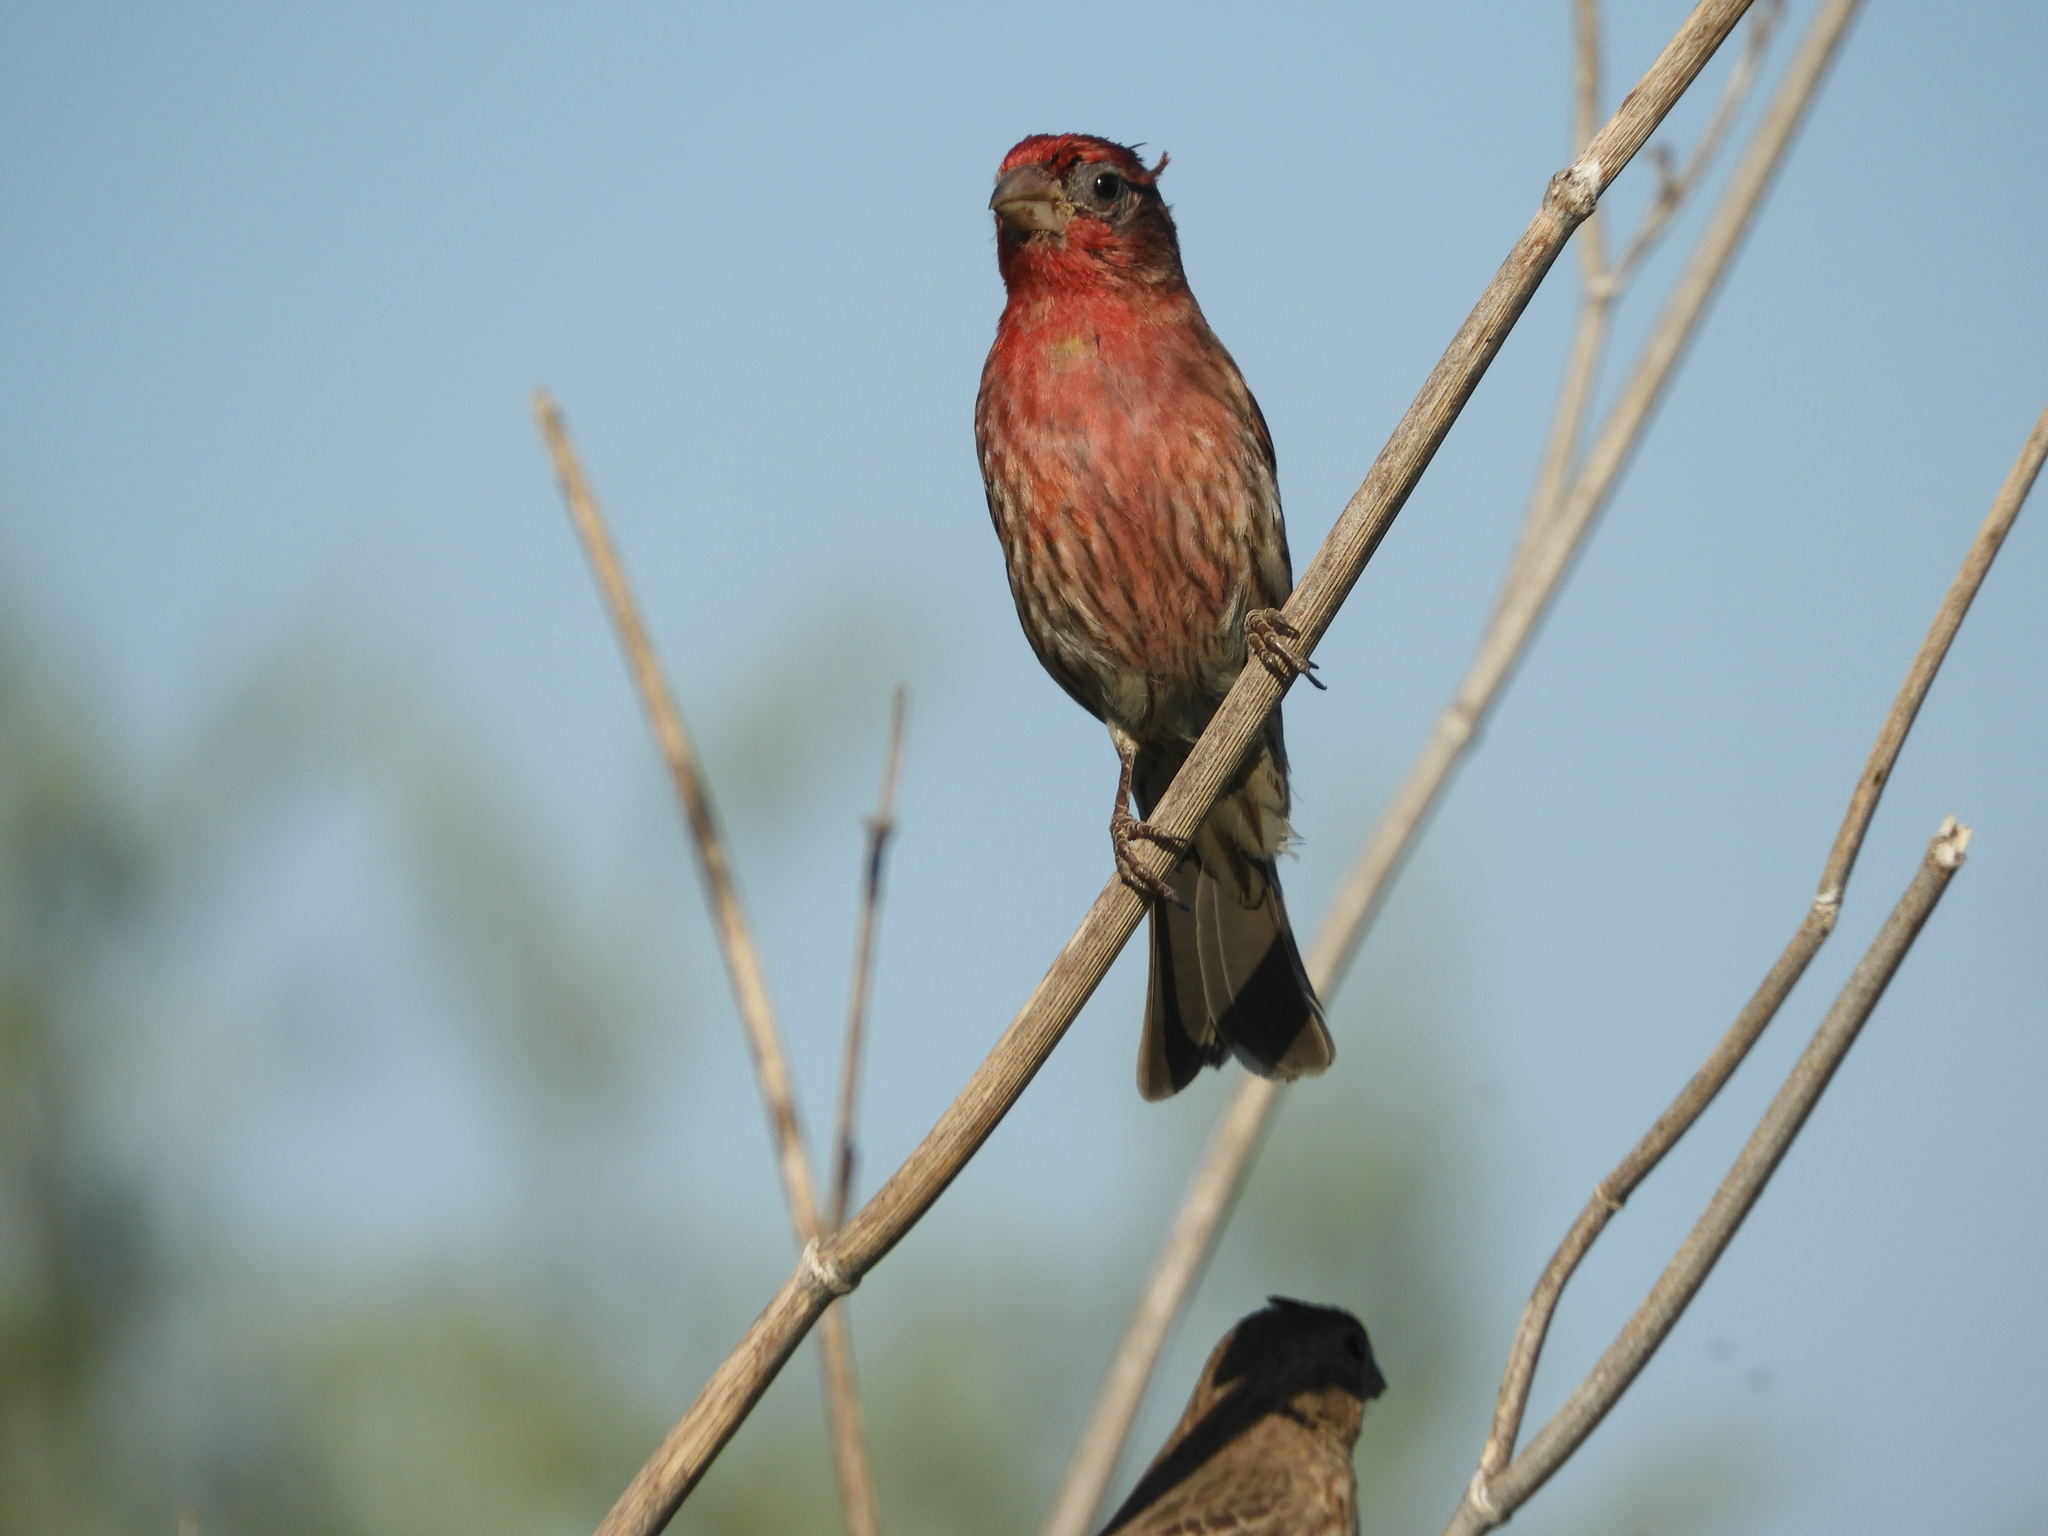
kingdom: Animalia
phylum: Chordata
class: Aves
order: Passeriformes
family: Fringillidae
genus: Haemorhous
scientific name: Haemorhous mexicanus
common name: House finch
